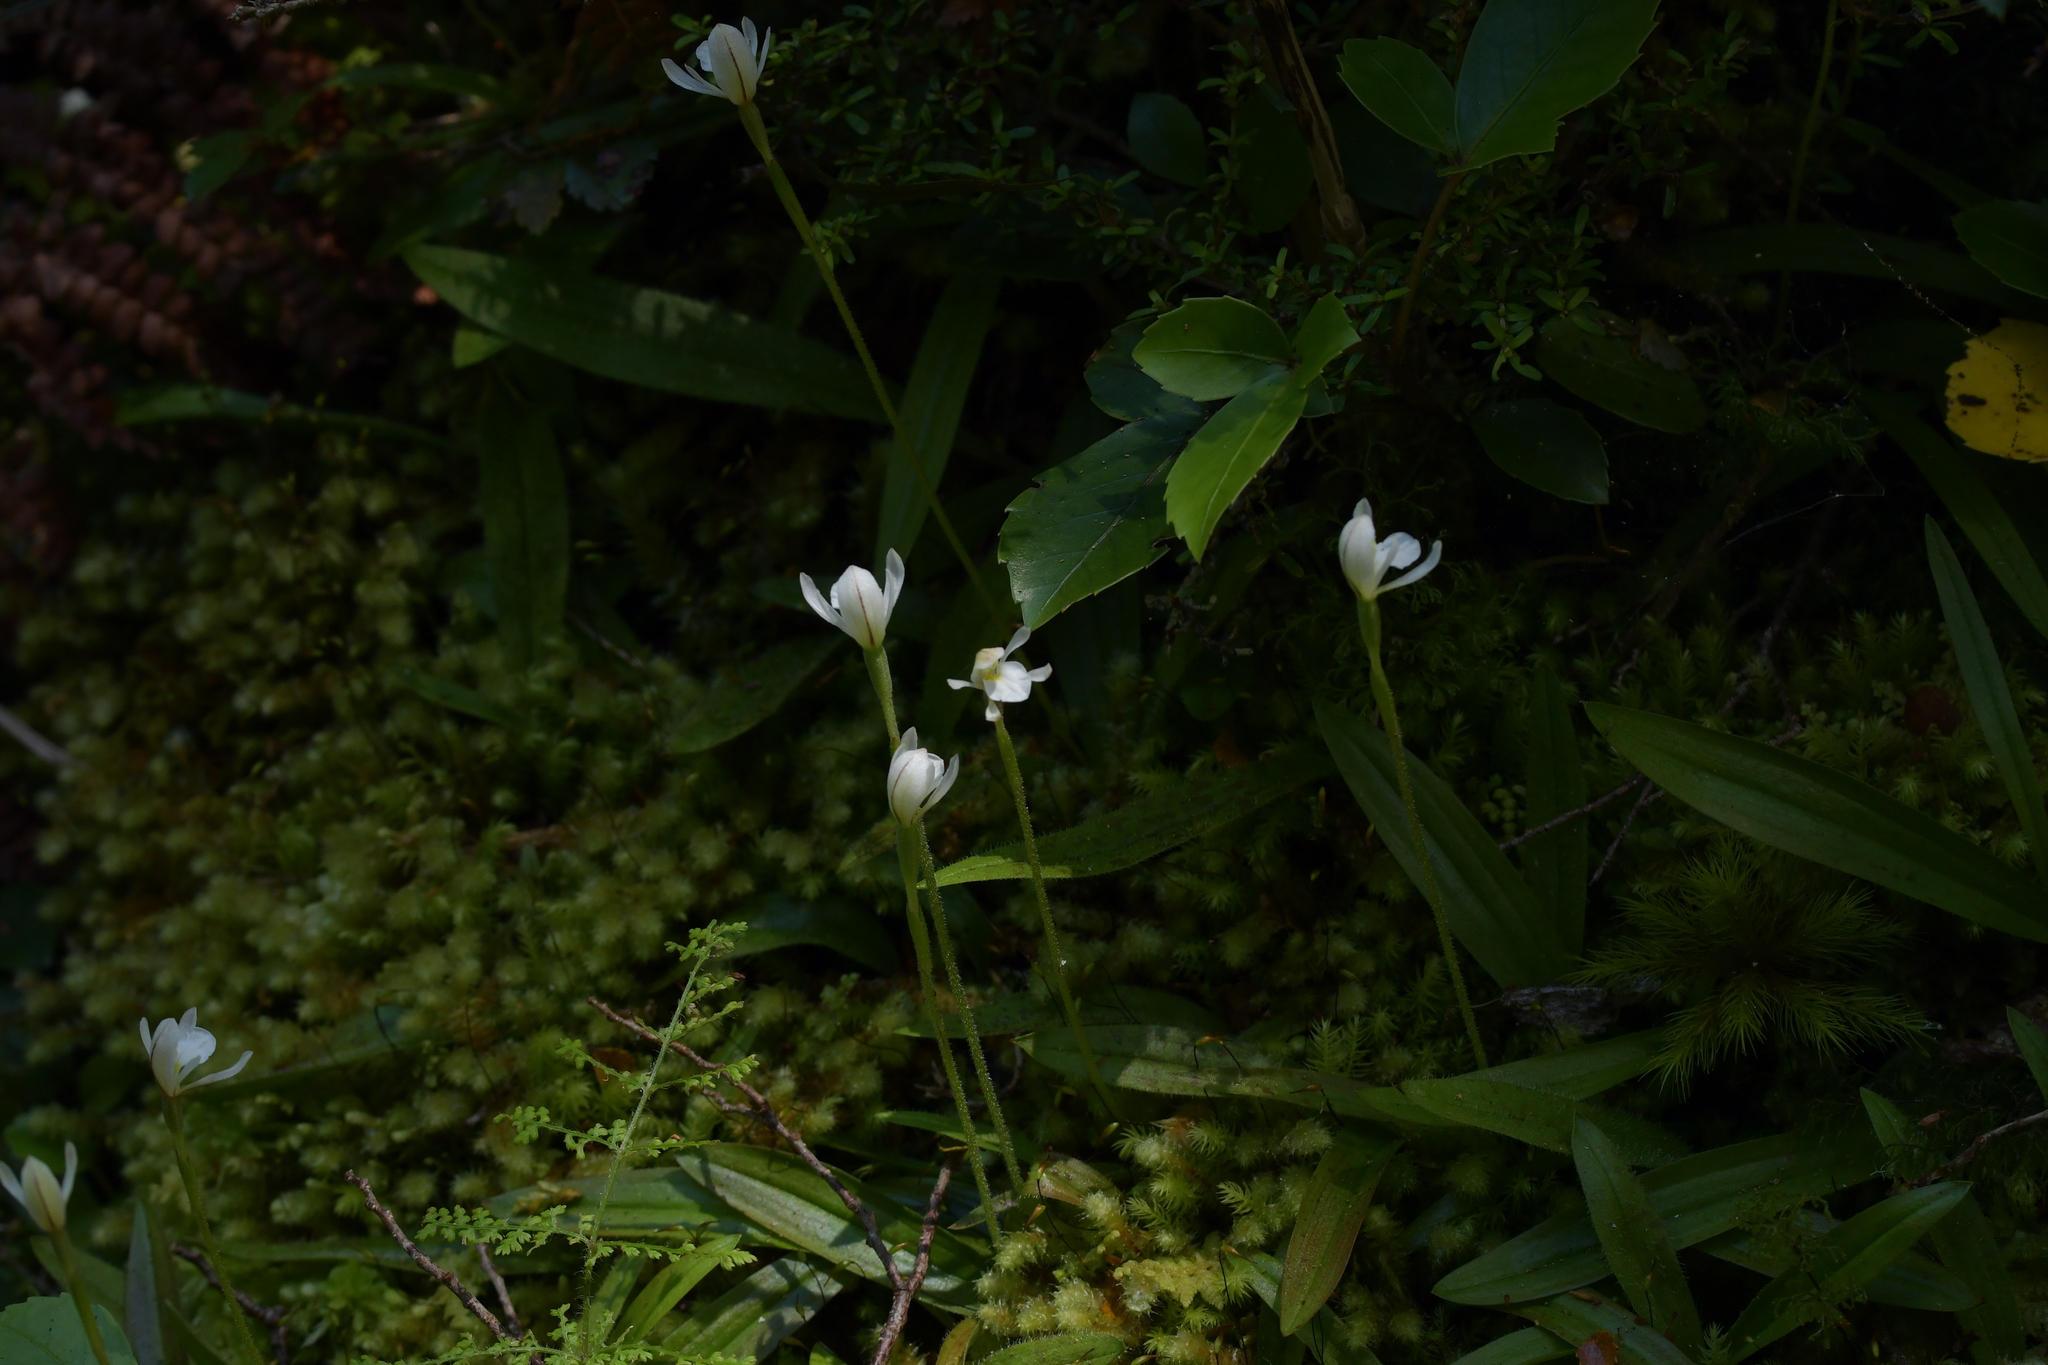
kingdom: Plantae
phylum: Tracheophyta
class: Liliopsida
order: Asparagales
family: Orchidaceae
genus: Aporostylis
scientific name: Aporostylis bifolia
